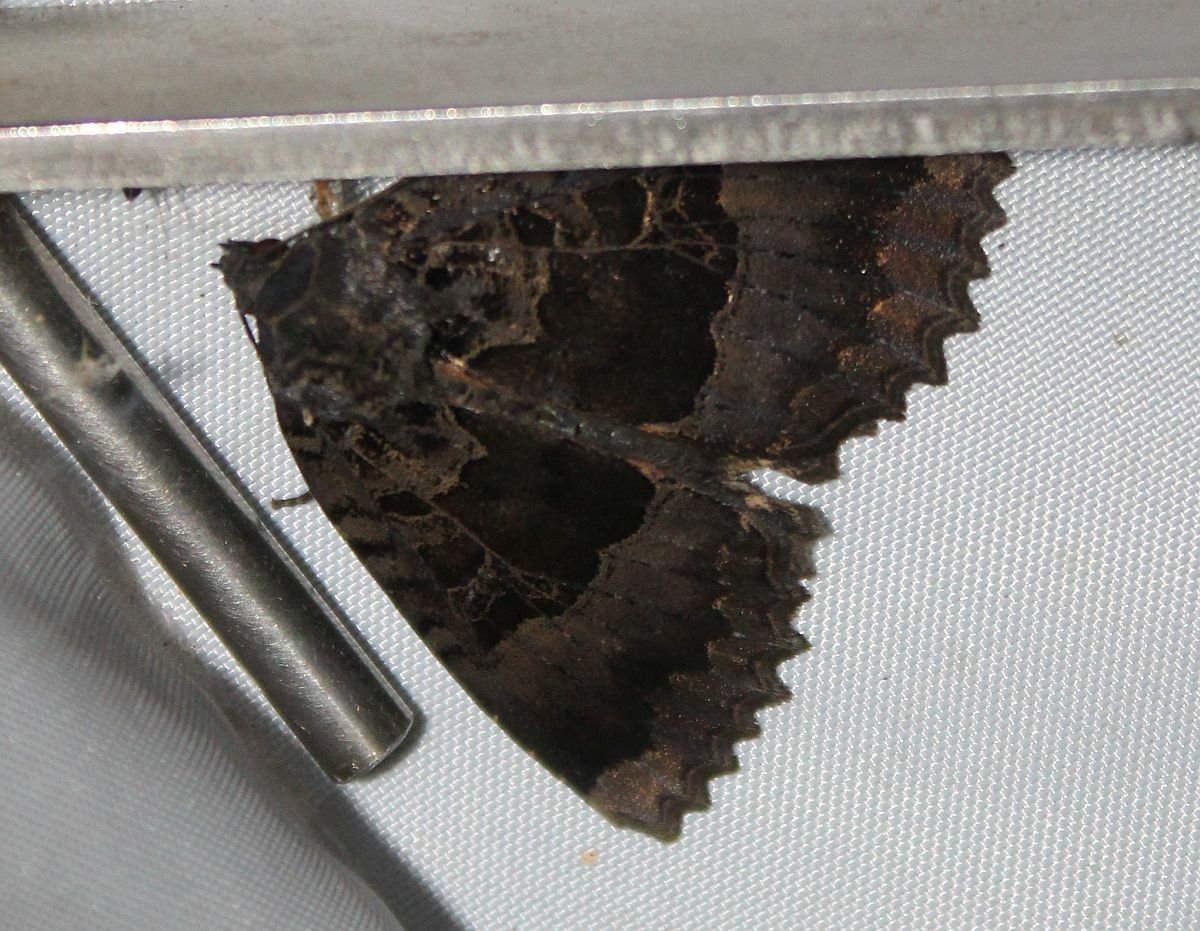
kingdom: Animalia
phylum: Arthropoda
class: Insecta
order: Lepidoptera
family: Noctuidae
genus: Mormo
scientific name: Mormo maura
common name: Old lady
